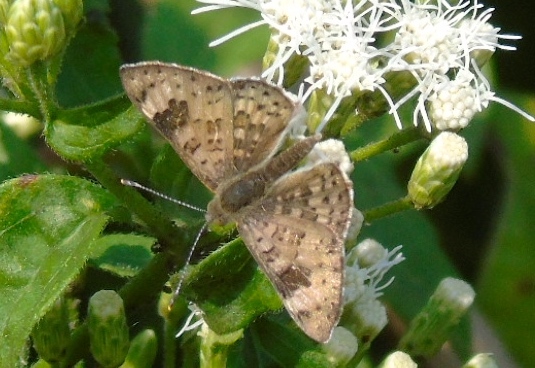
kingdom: Animalia
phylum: Arthropoda
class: Insecta
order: Lepidoptera
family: Riodinidae
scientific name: Riodinidae
